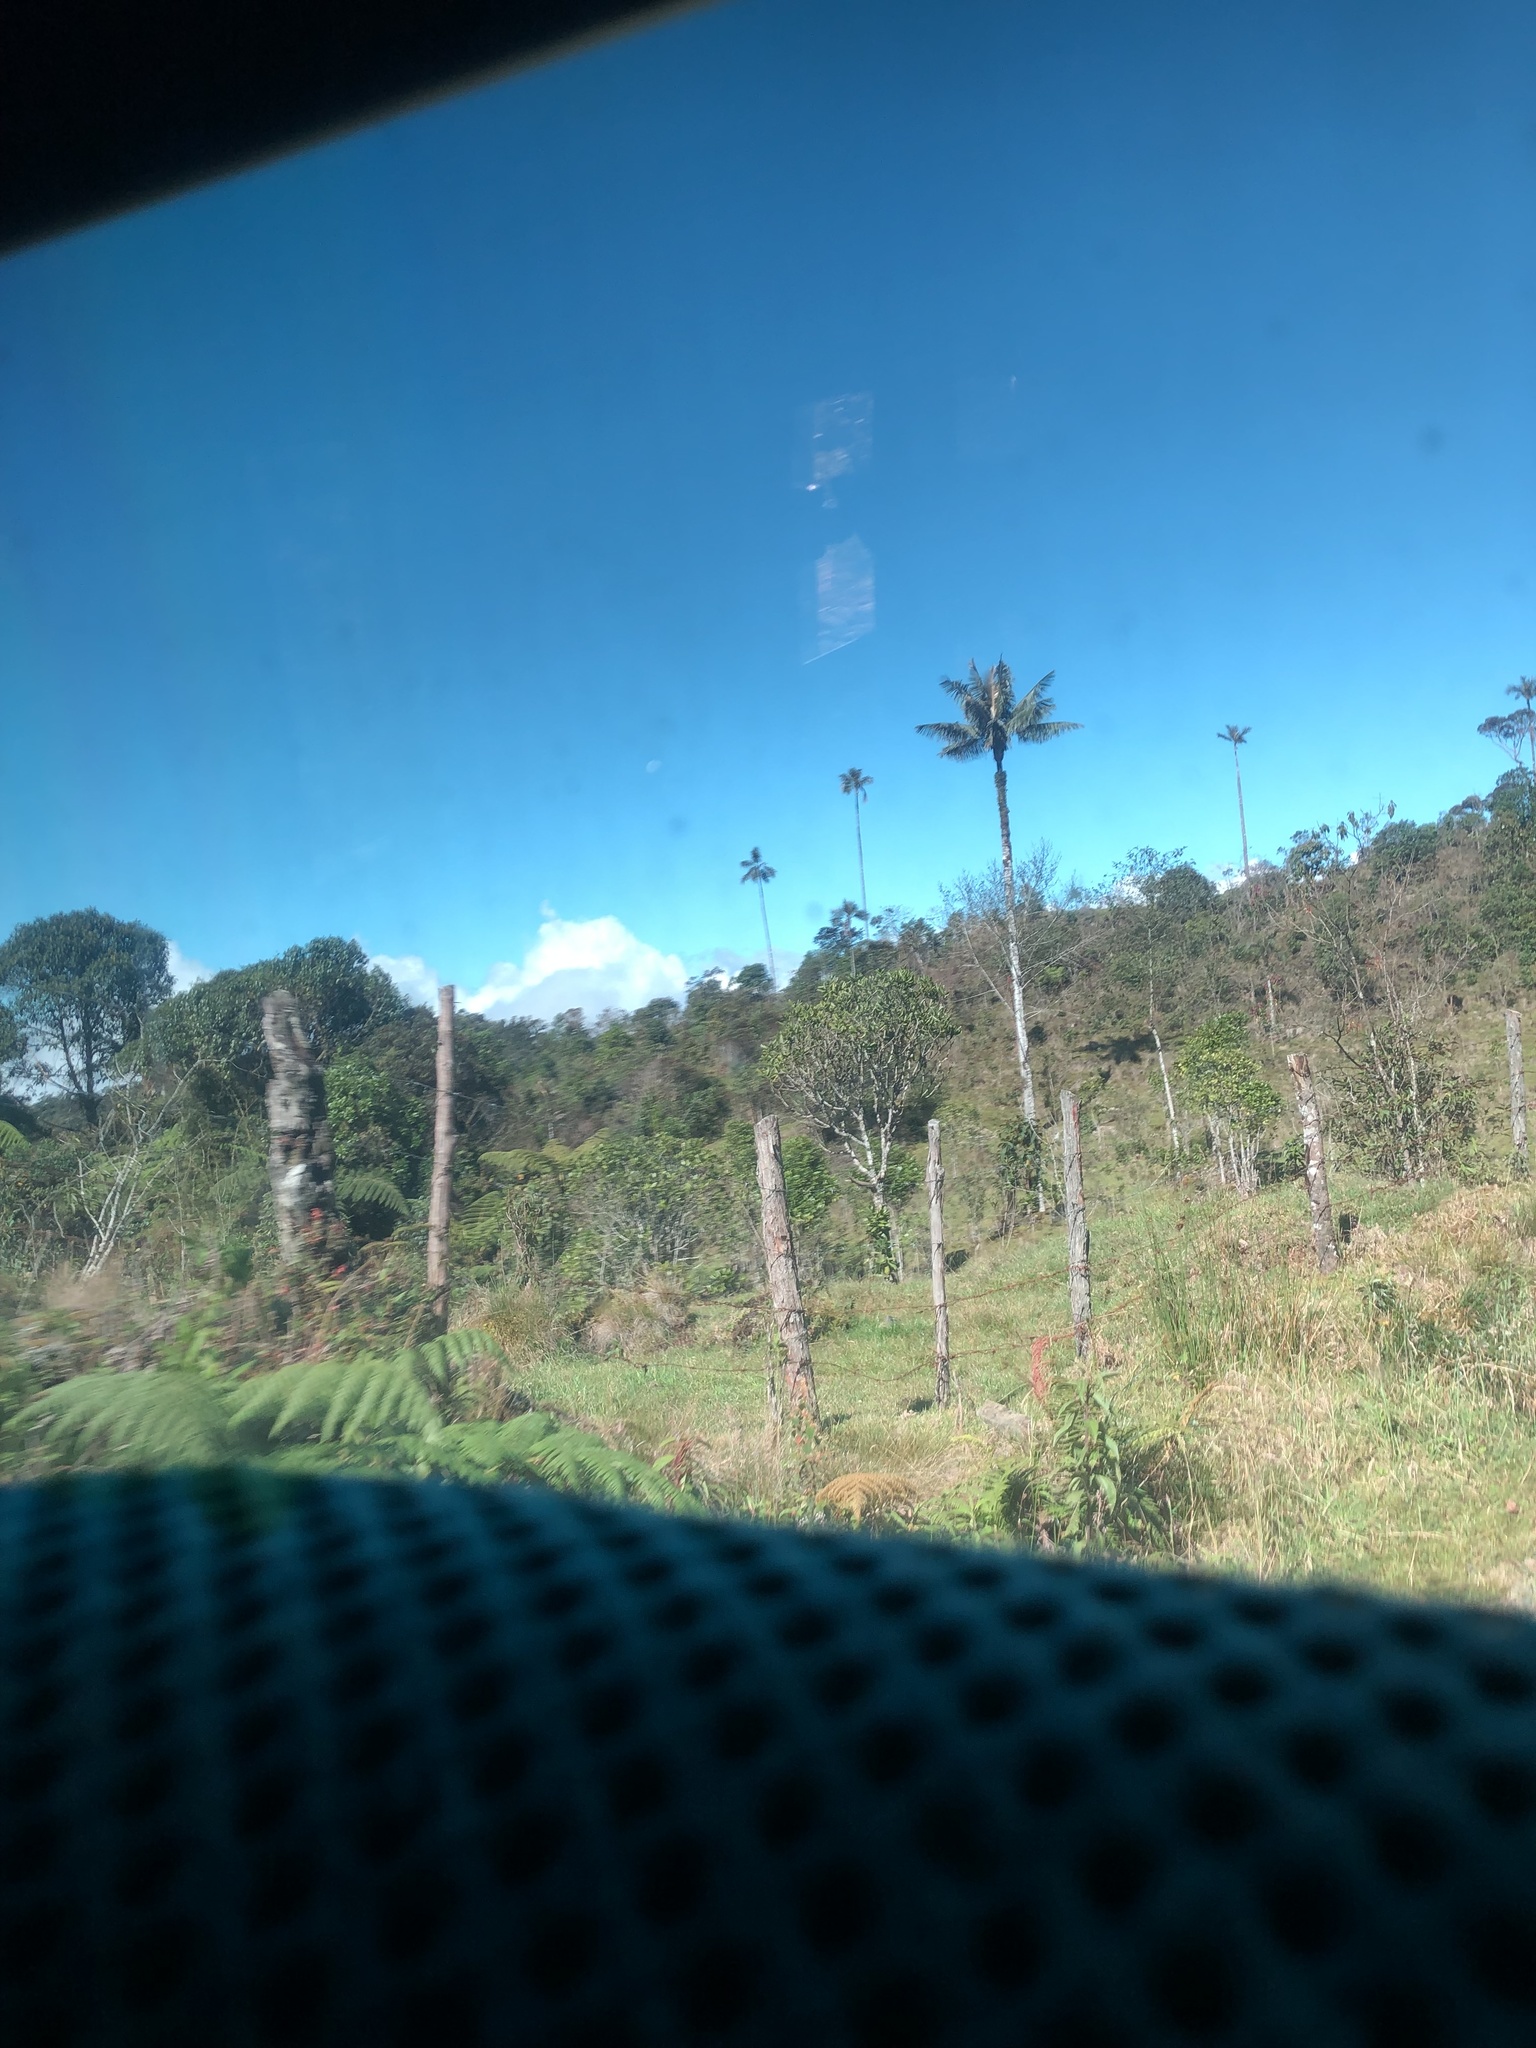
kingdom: Plantae
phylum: Tracheophyta
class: Liliopsida
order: Arecales
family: Arecaceae
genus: Ceroxylon
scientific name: Ceroxylon quindiuense
